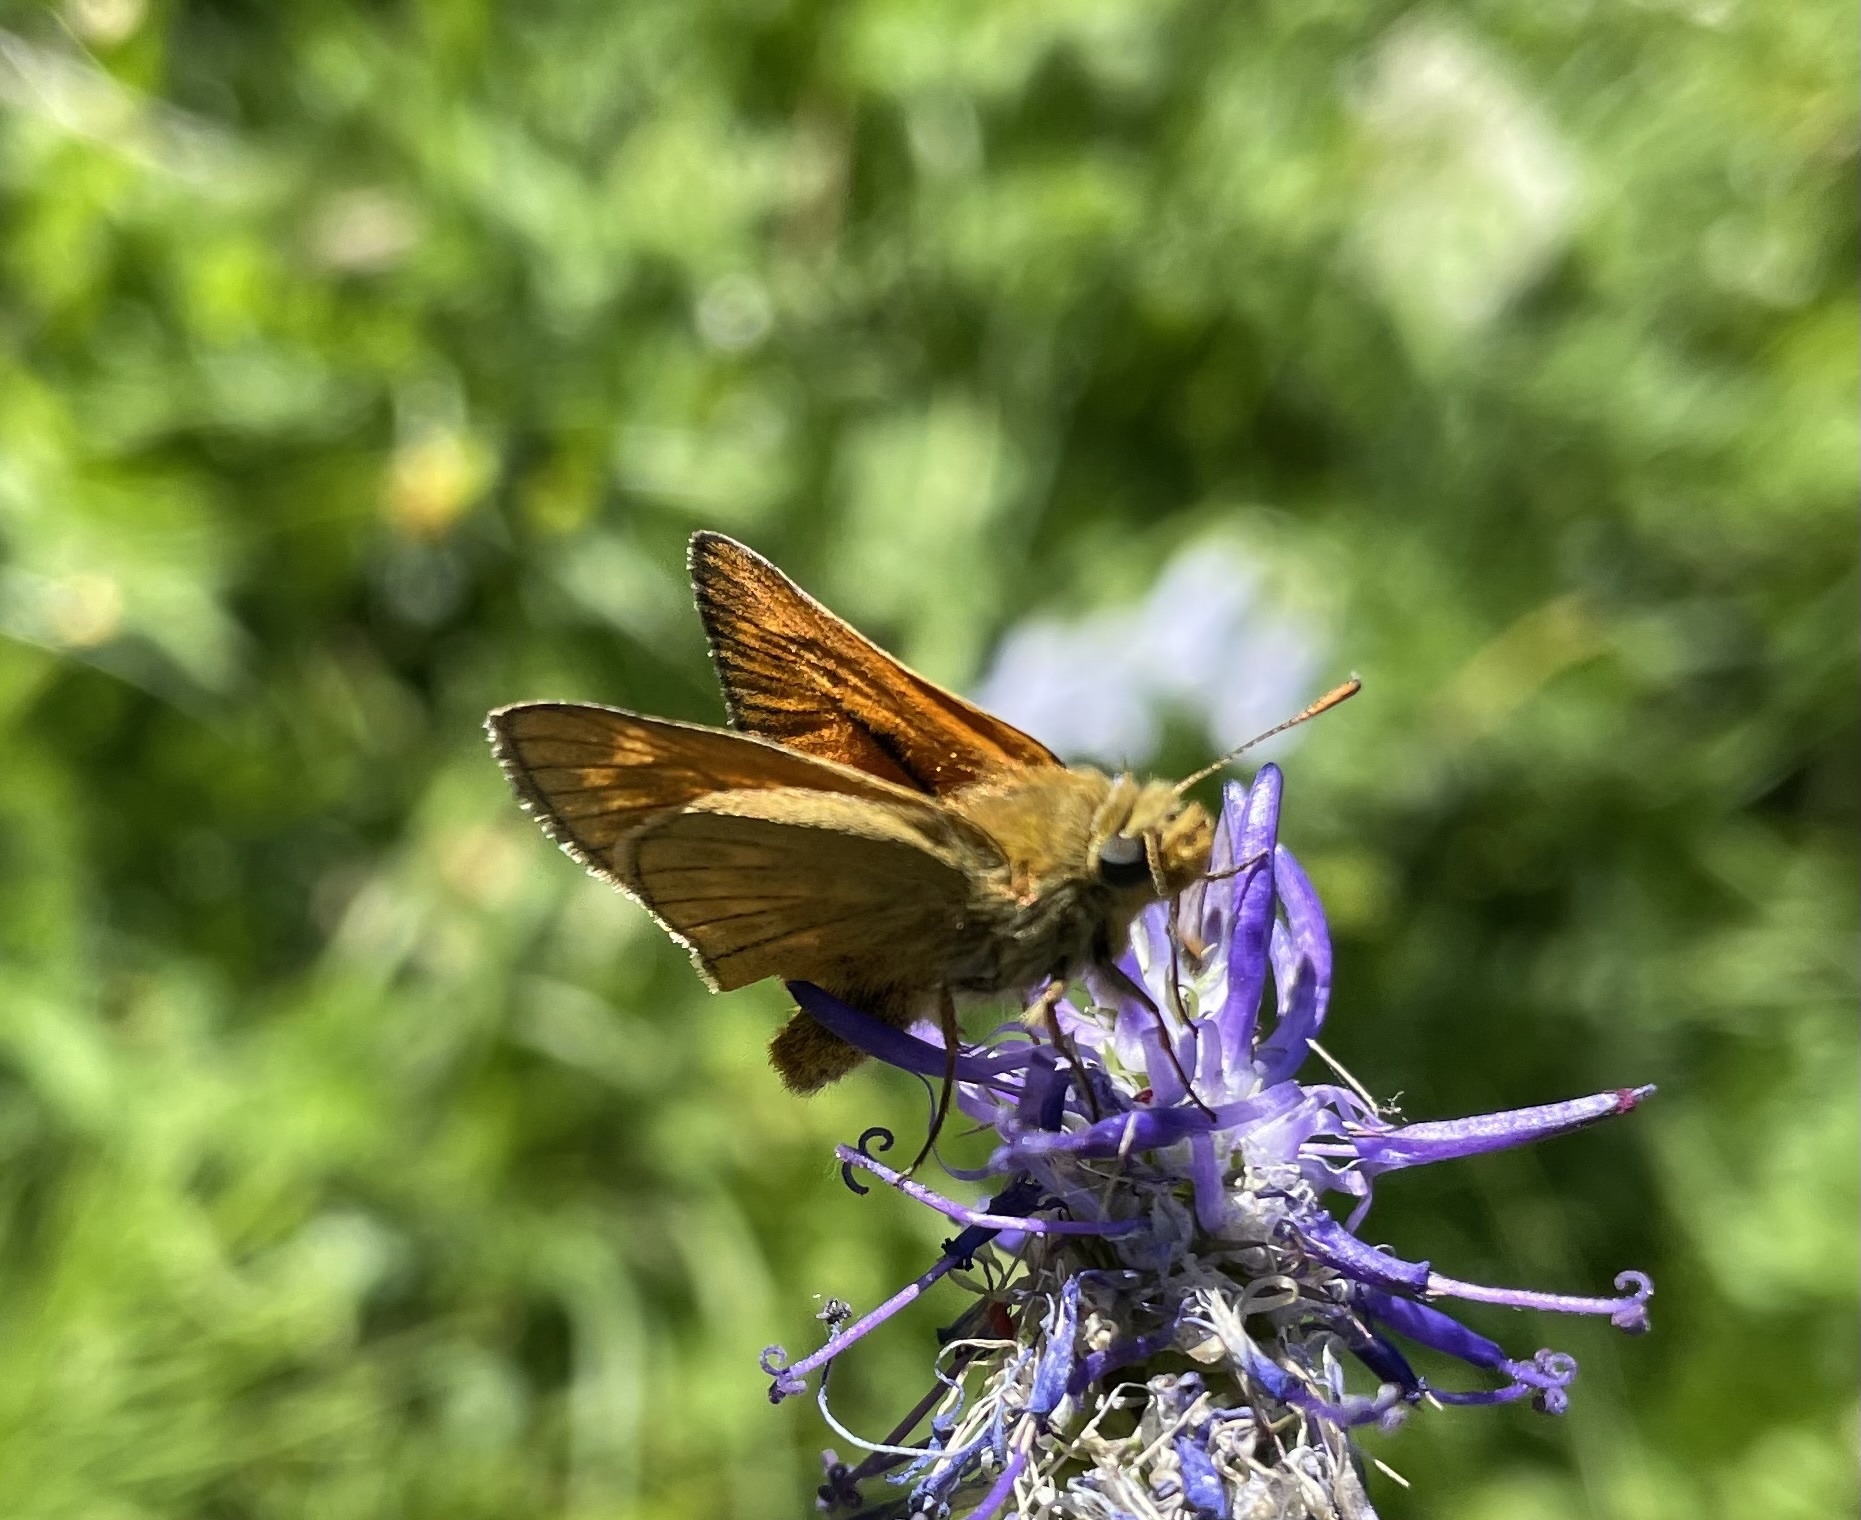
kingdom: Animalia
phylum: Arthropoda
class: Insecta
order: Lepidoptera
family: Hesperiidae
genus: Ochlodes
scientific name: Ochlodes venata
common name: Large skipper
